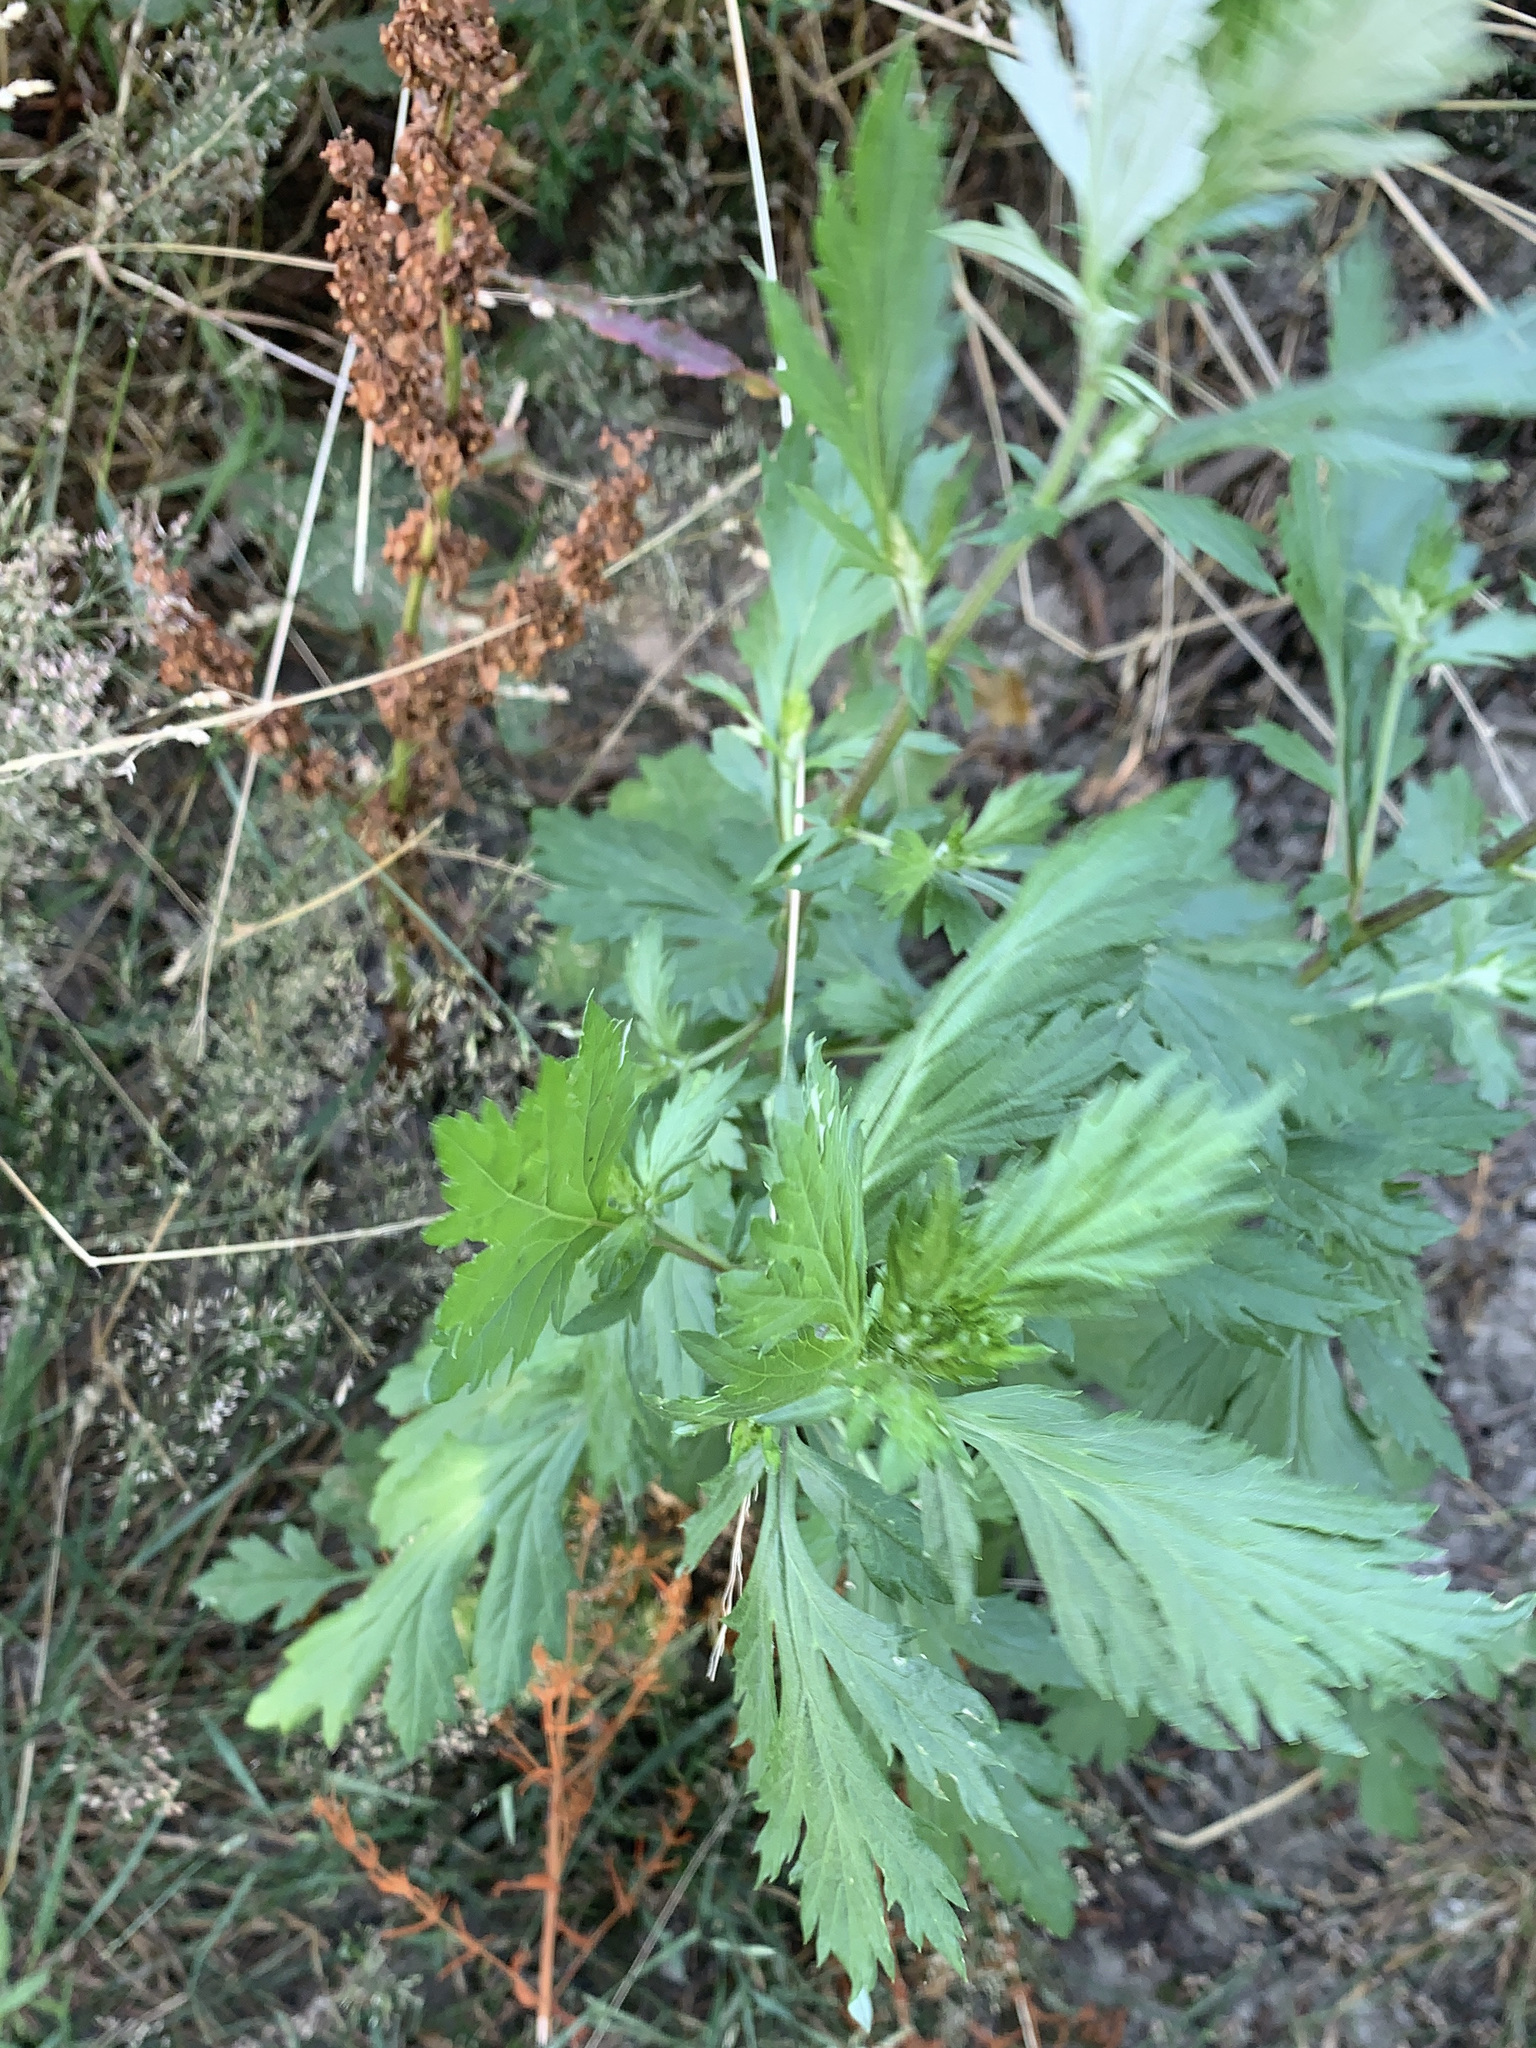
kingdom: Plantae
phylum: Tracheophyta
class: Magnoliopsida
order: Asterales
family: Asteraceae
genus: Artemisia
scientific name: Artemisia vulgaris
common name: Mugwort
